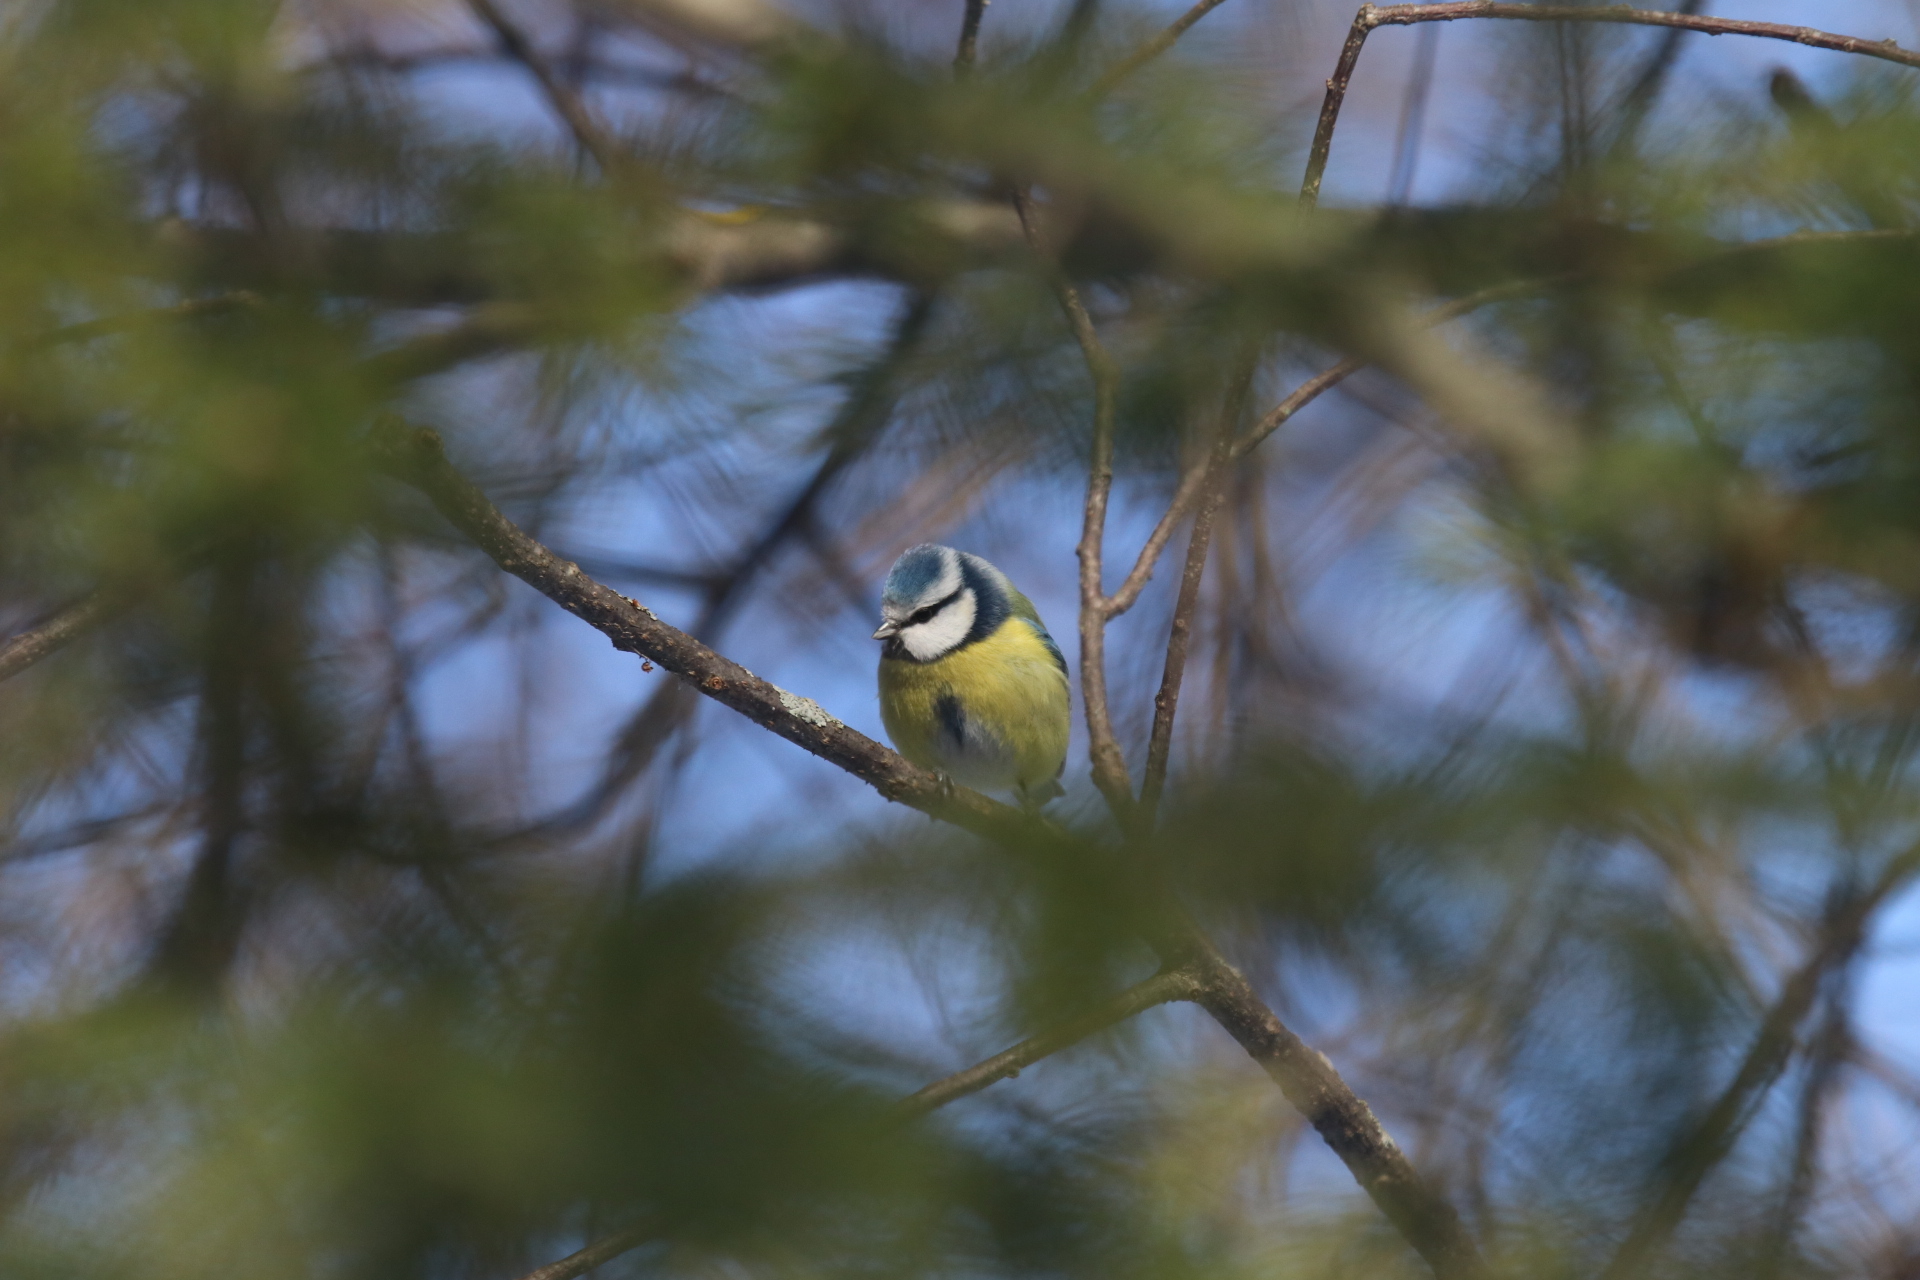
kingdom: Animalia
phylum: Chordata
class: Aves
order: Passeriformes
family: Paridae
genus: Cyanistes
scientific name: Cyanistes caeruleus
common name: Eurasian blue tit
